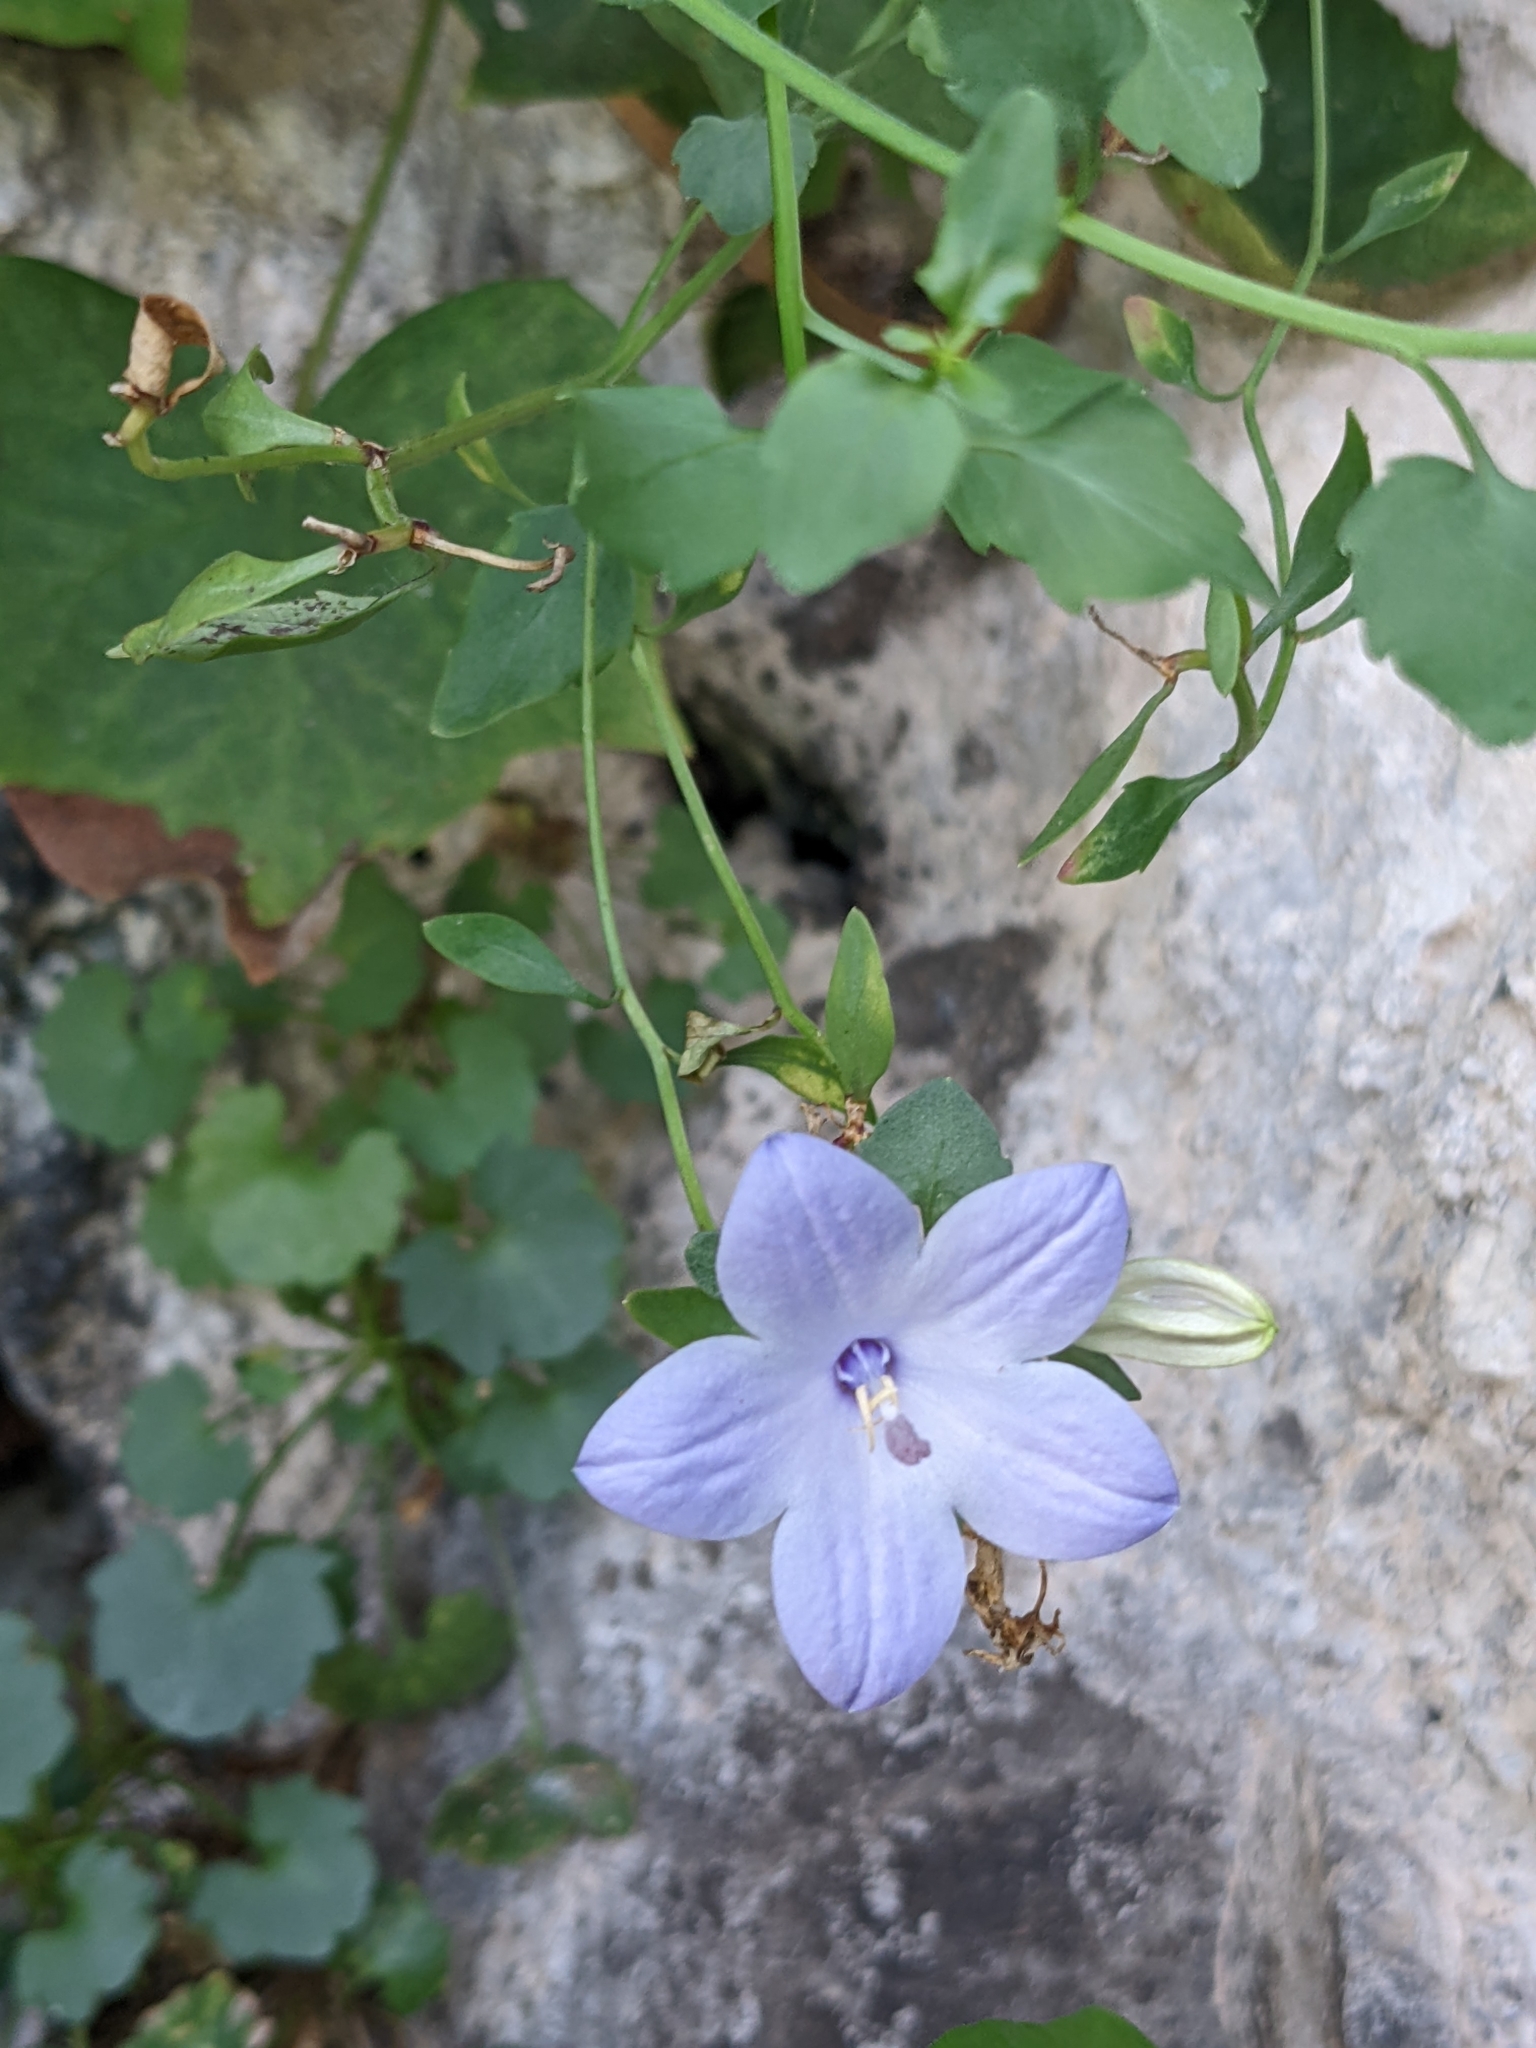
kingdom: Plantae
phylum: Tracheophyta
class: Magnoliopsida
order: Asterales
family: Campanulaceae
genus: Campanula
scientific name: Campanula fragilis
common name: Italian bellflower
